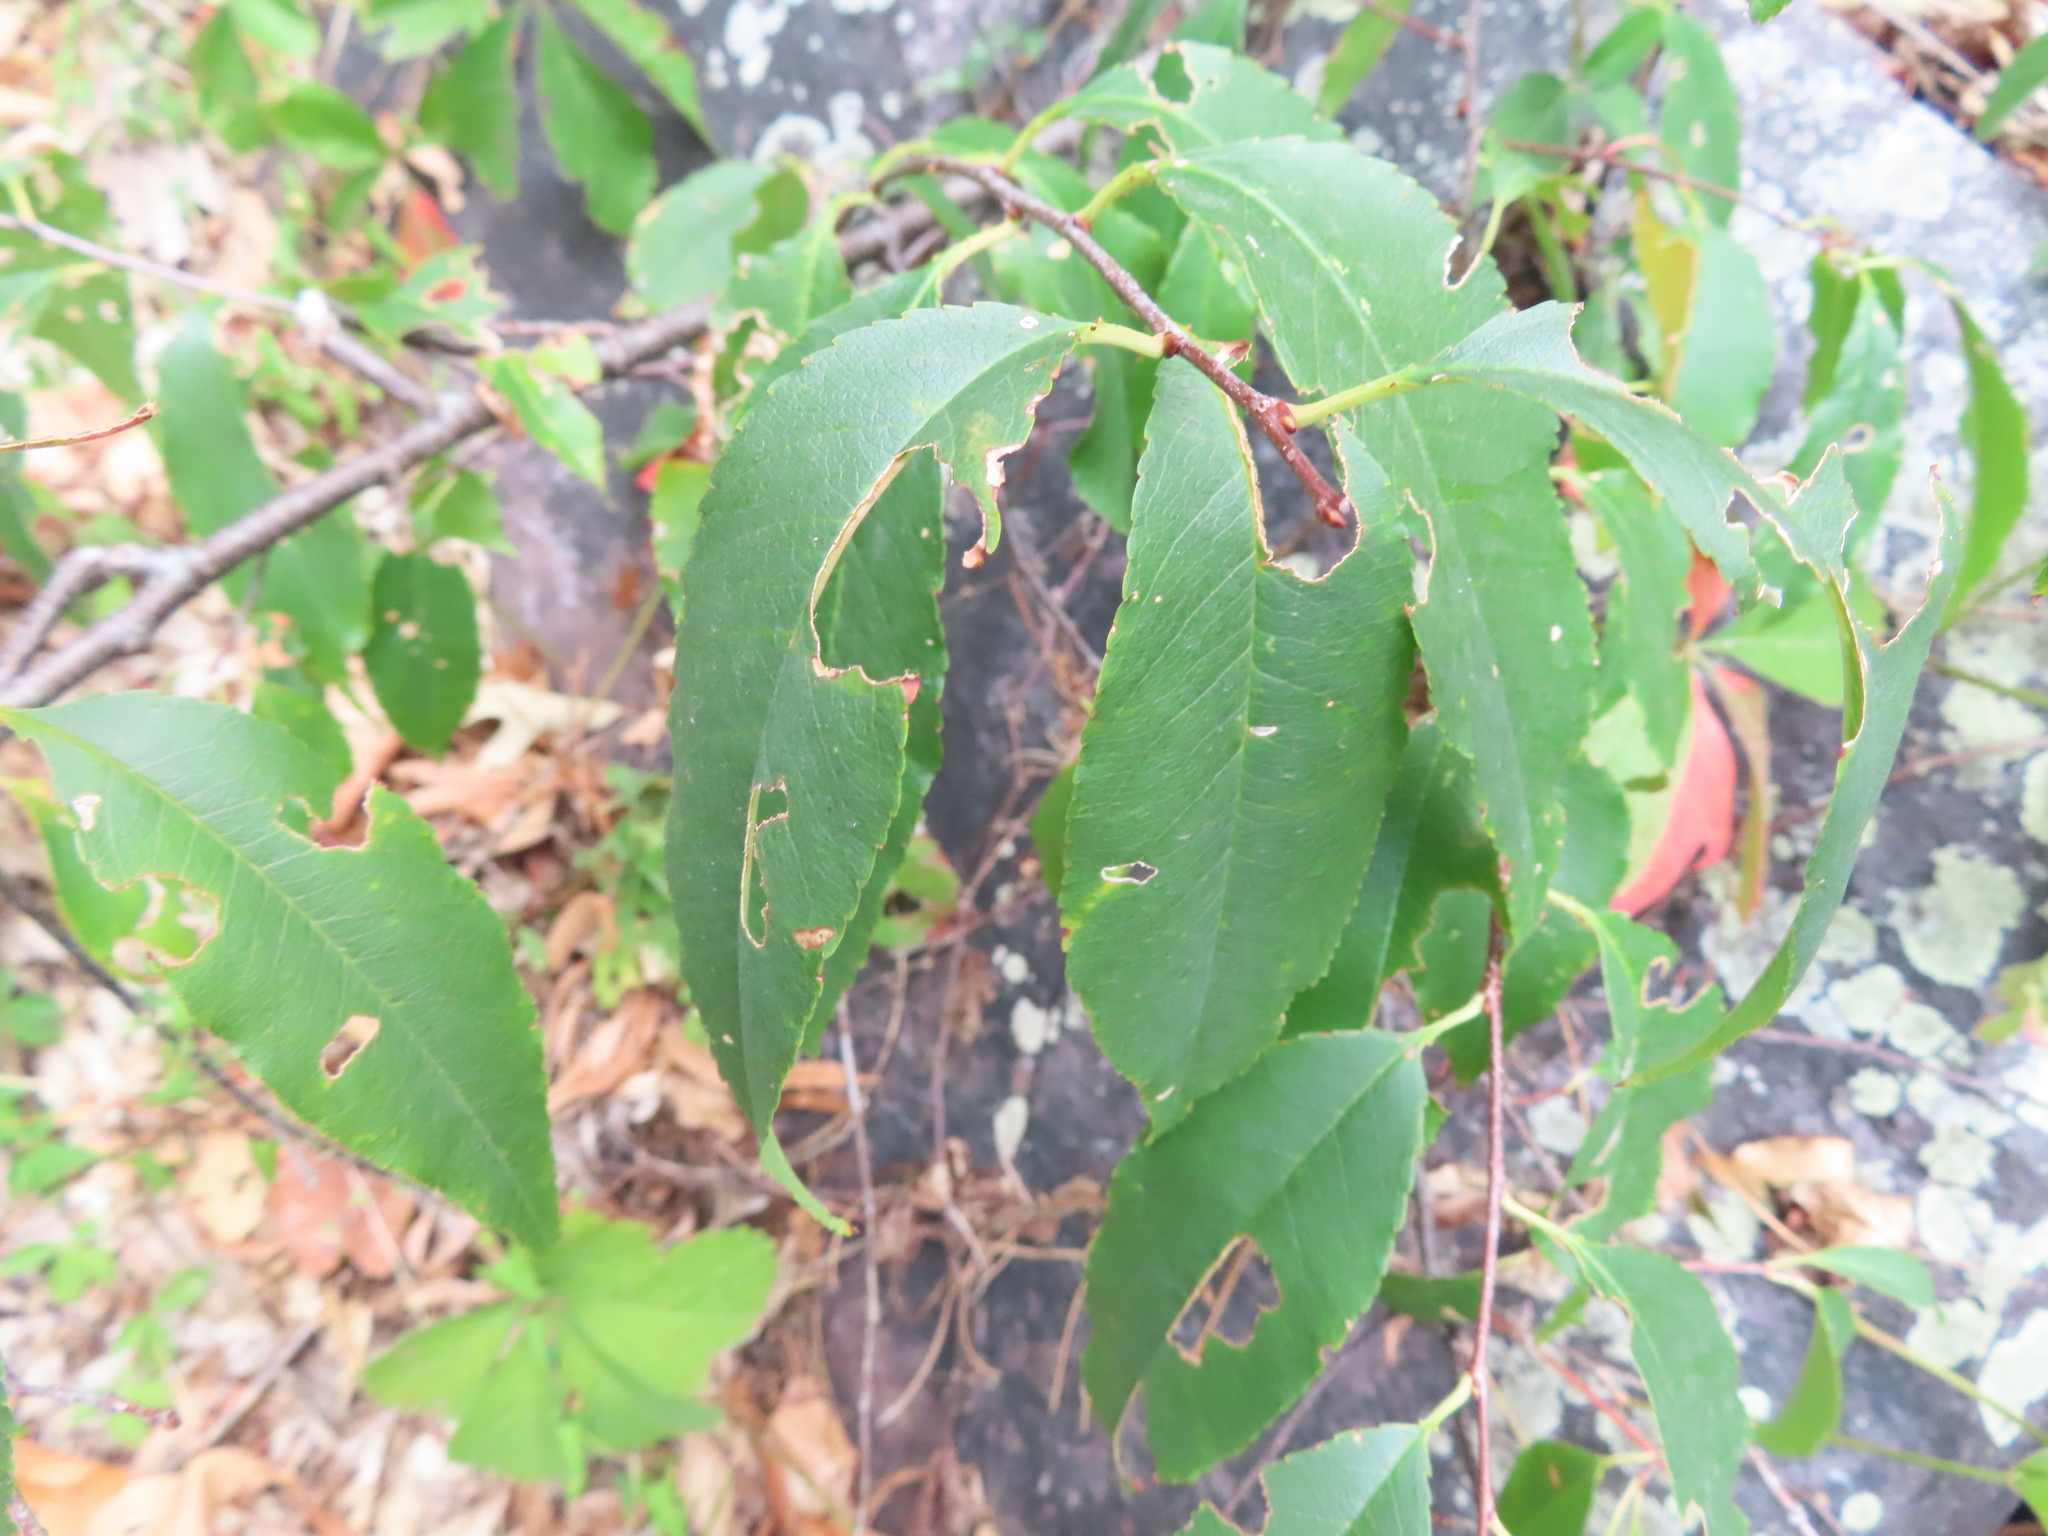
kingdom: Plantae
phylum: Tracheophyta
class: Magnoliopsida
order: Rosales
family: Rosaceae
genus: Prunus
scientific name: Prunus serotina
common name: Black cherry
